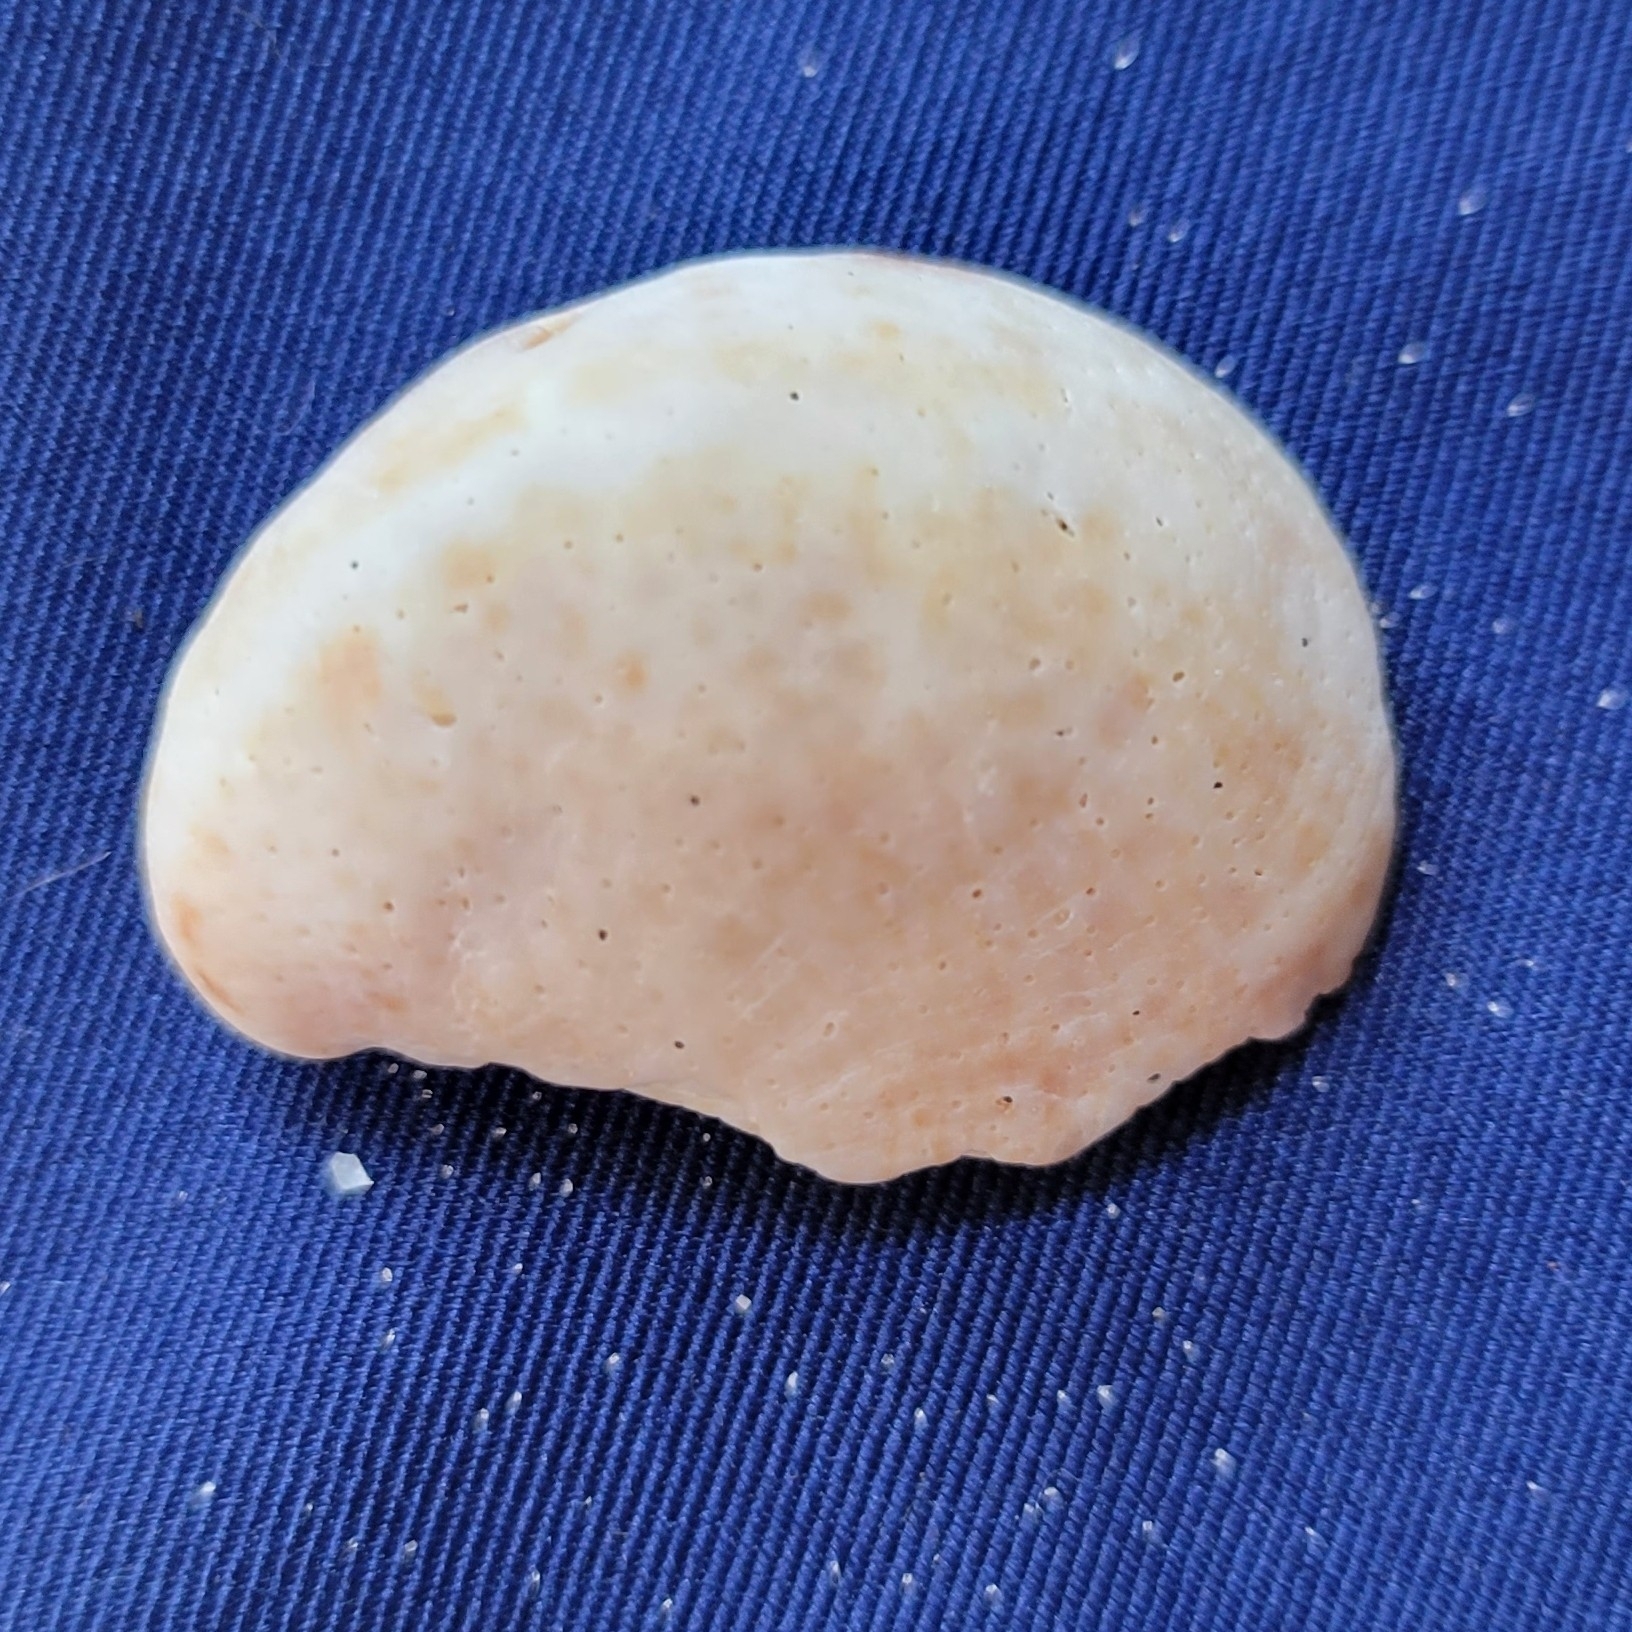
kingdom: Animalia
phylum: Mollusca
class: Gastropoda
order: Littorinimorpha
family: Calyptraeidae
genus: Crepidula
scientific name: Crepidula fornicata
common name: Slipper limpet
